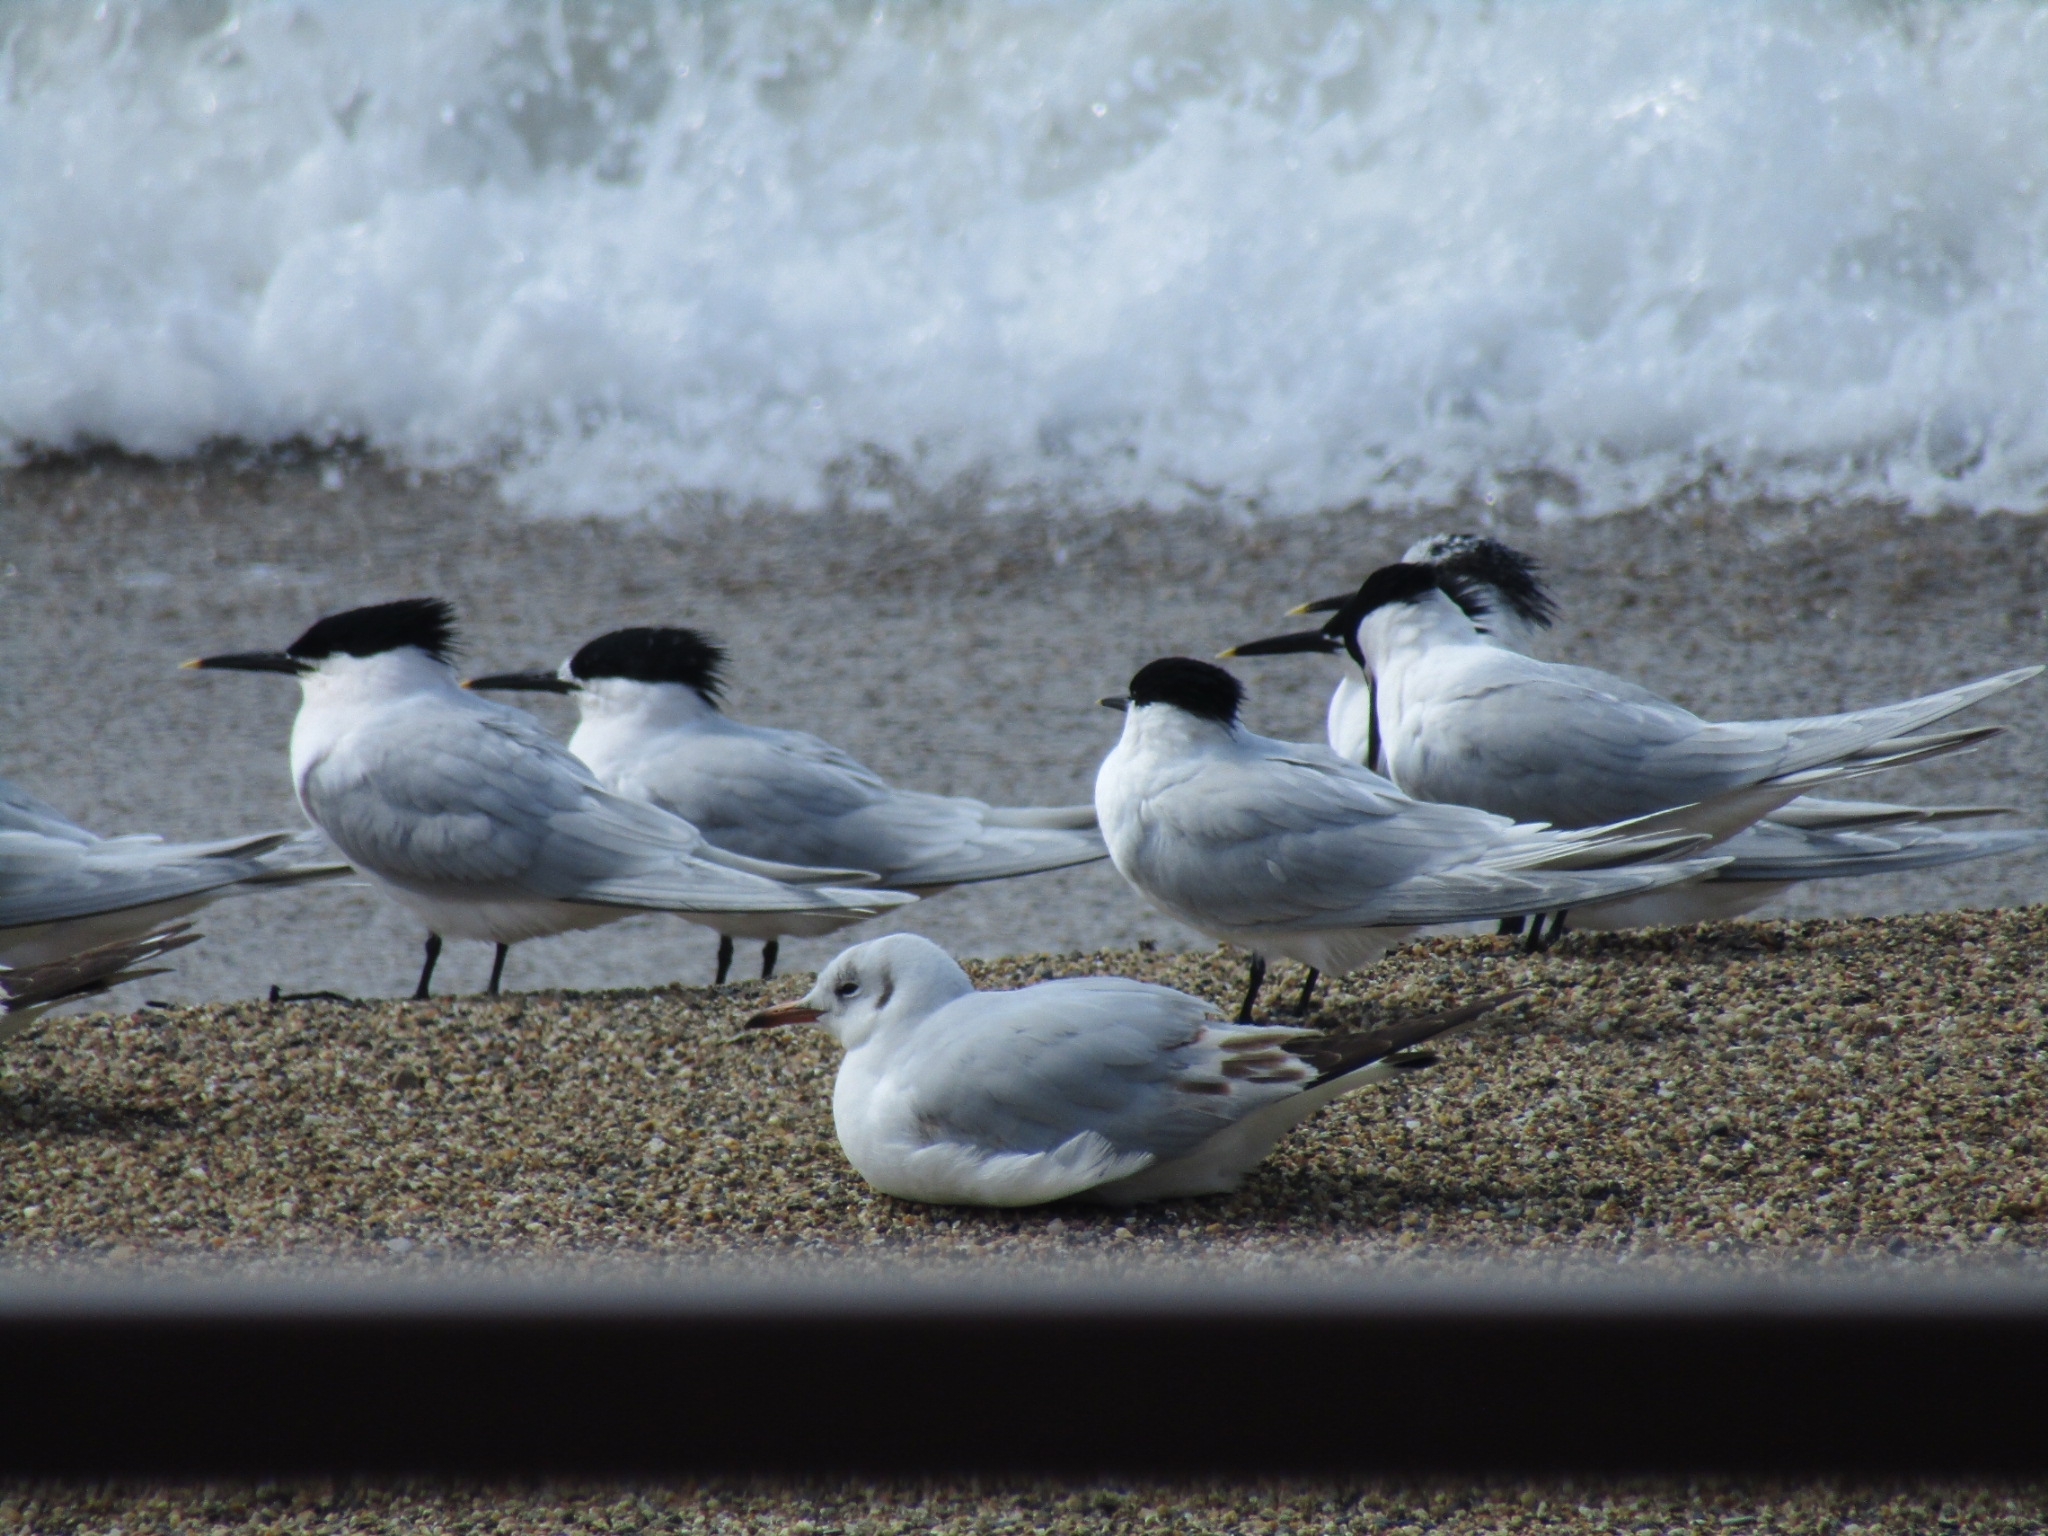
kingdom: Animalia
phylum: Chordata
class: Aves
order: Charadriiformes
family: Laridae
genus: Thalasseus
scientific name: Thalasseus sandvicensis
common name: Sandwich tern
